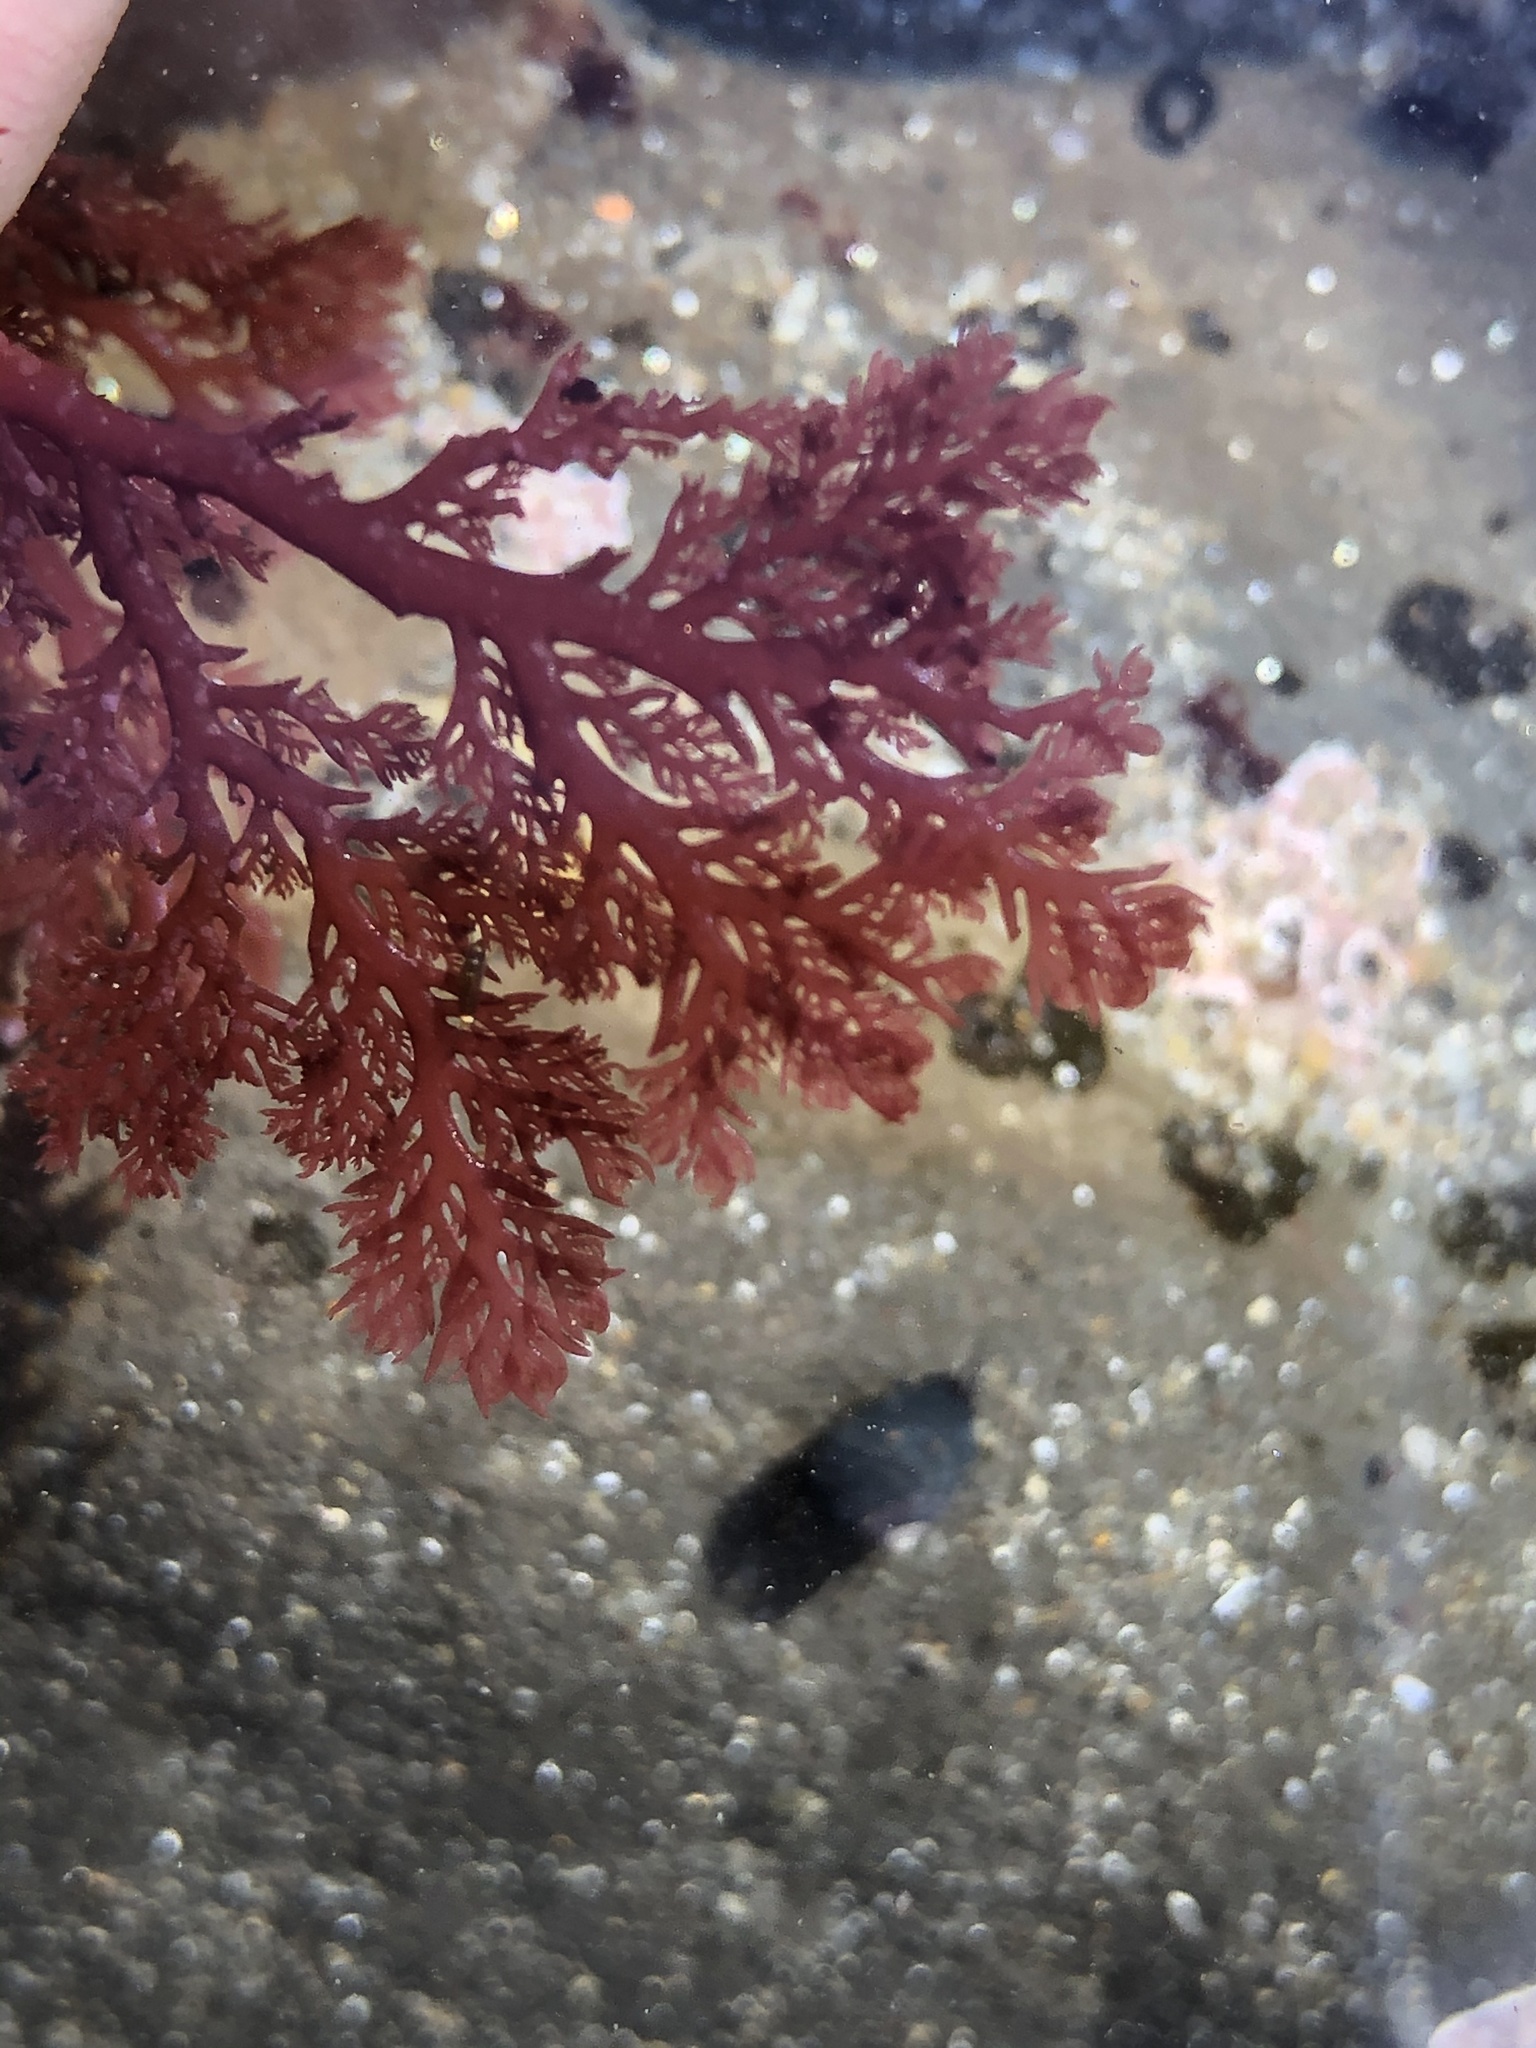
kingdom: Plantae
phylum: Rhodophyta
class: Florideophyceae
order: Plocamiales
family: Plocamiaceae
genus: Plocamium
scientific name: Plocamium cartilagineum
